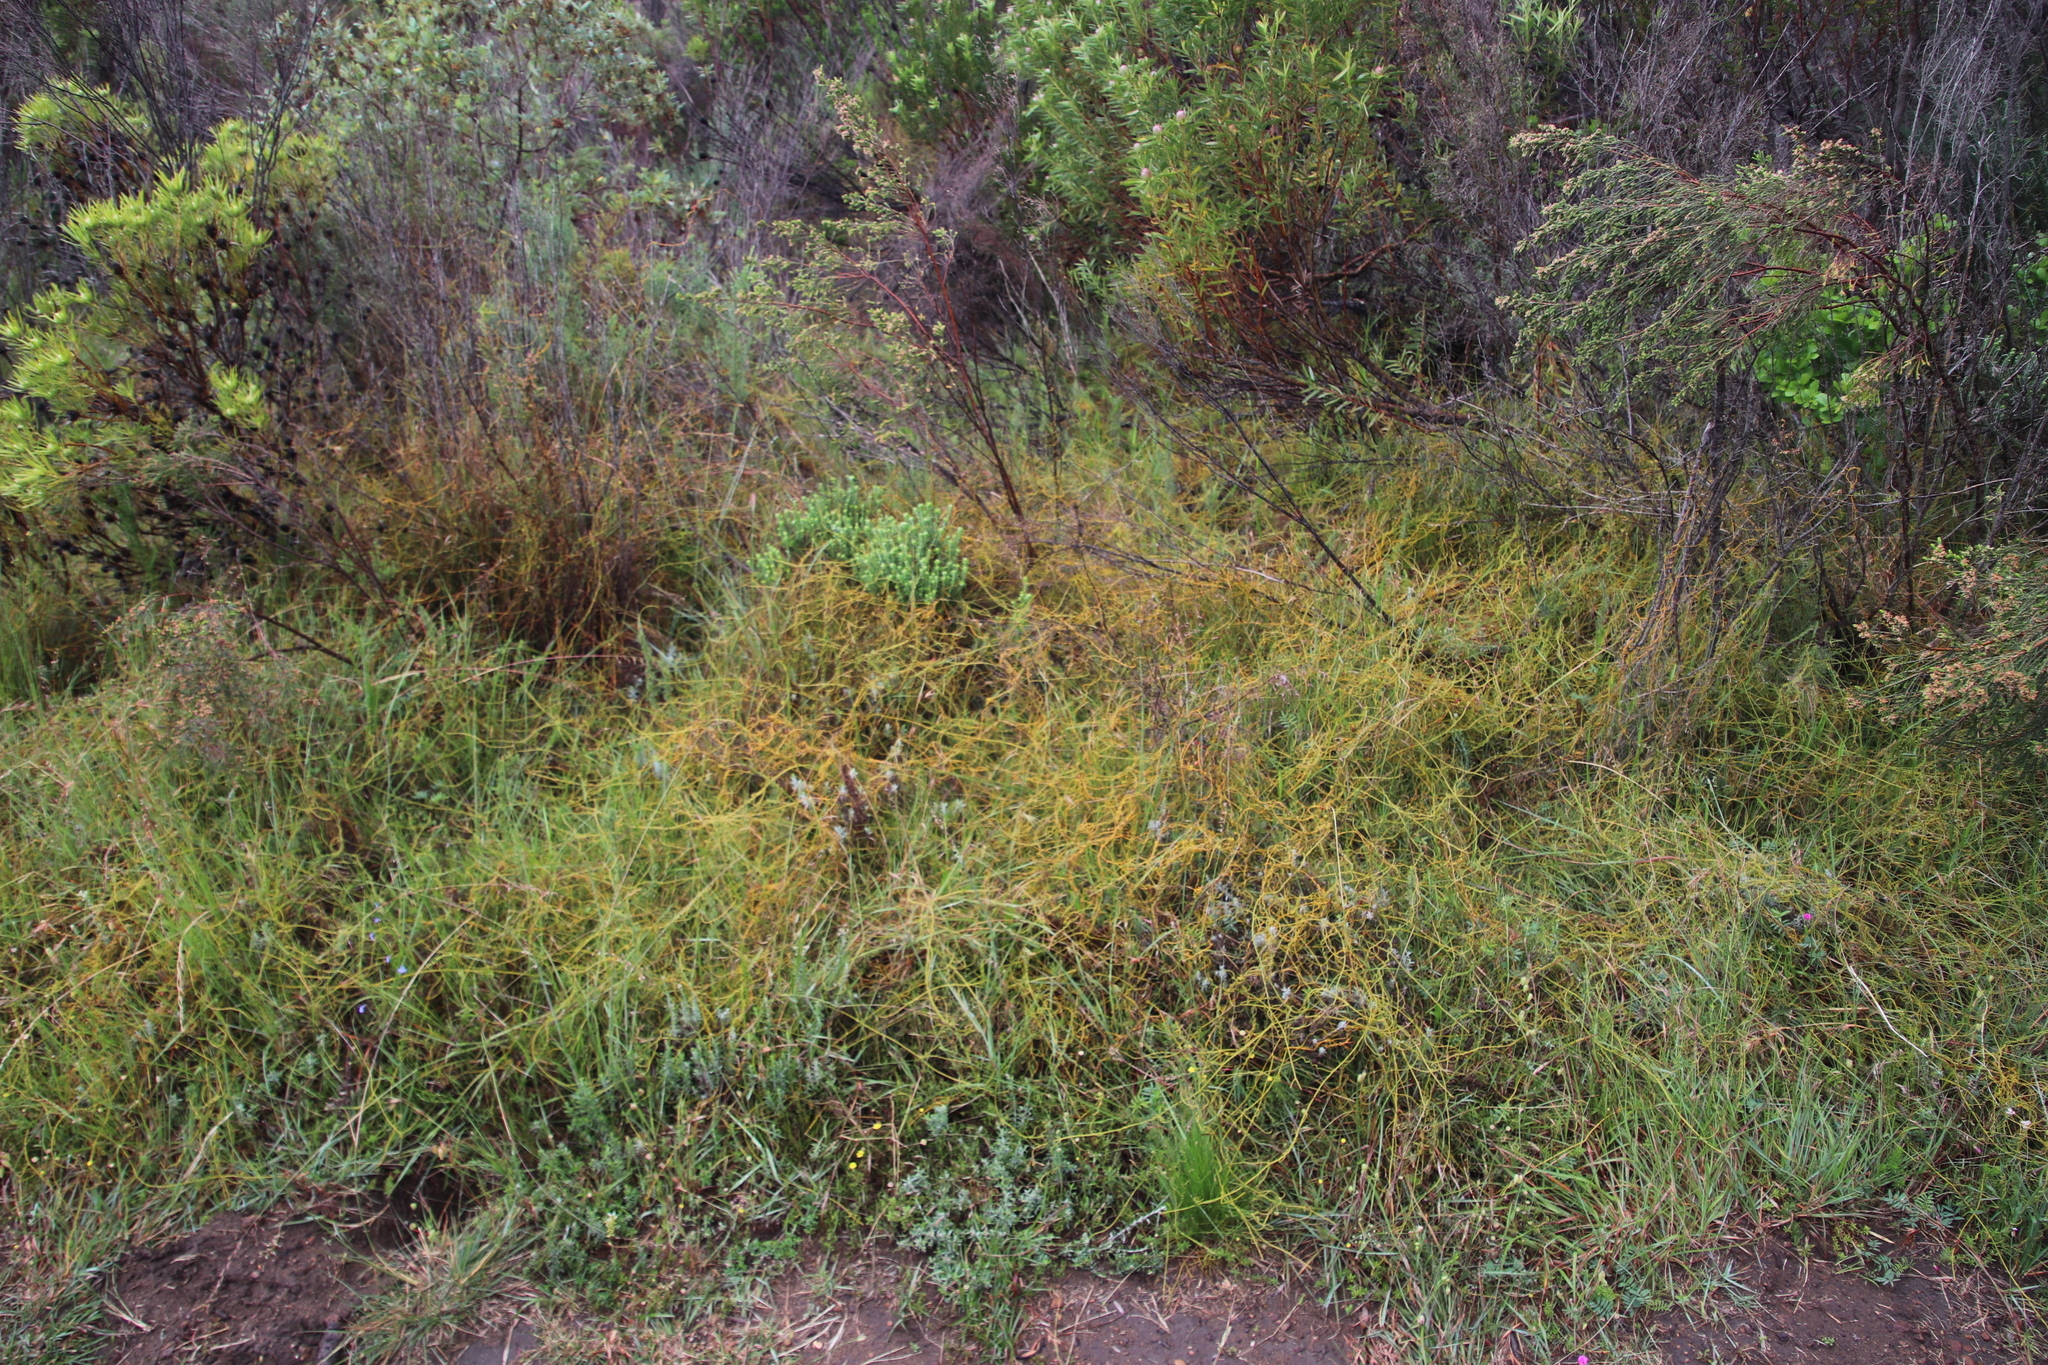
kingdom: Plantae
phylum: Tracheophyta
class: Magnoliopsida
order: Laurales
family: Lauraceae
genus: Cassytha
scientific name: Cassytha ciliolata
